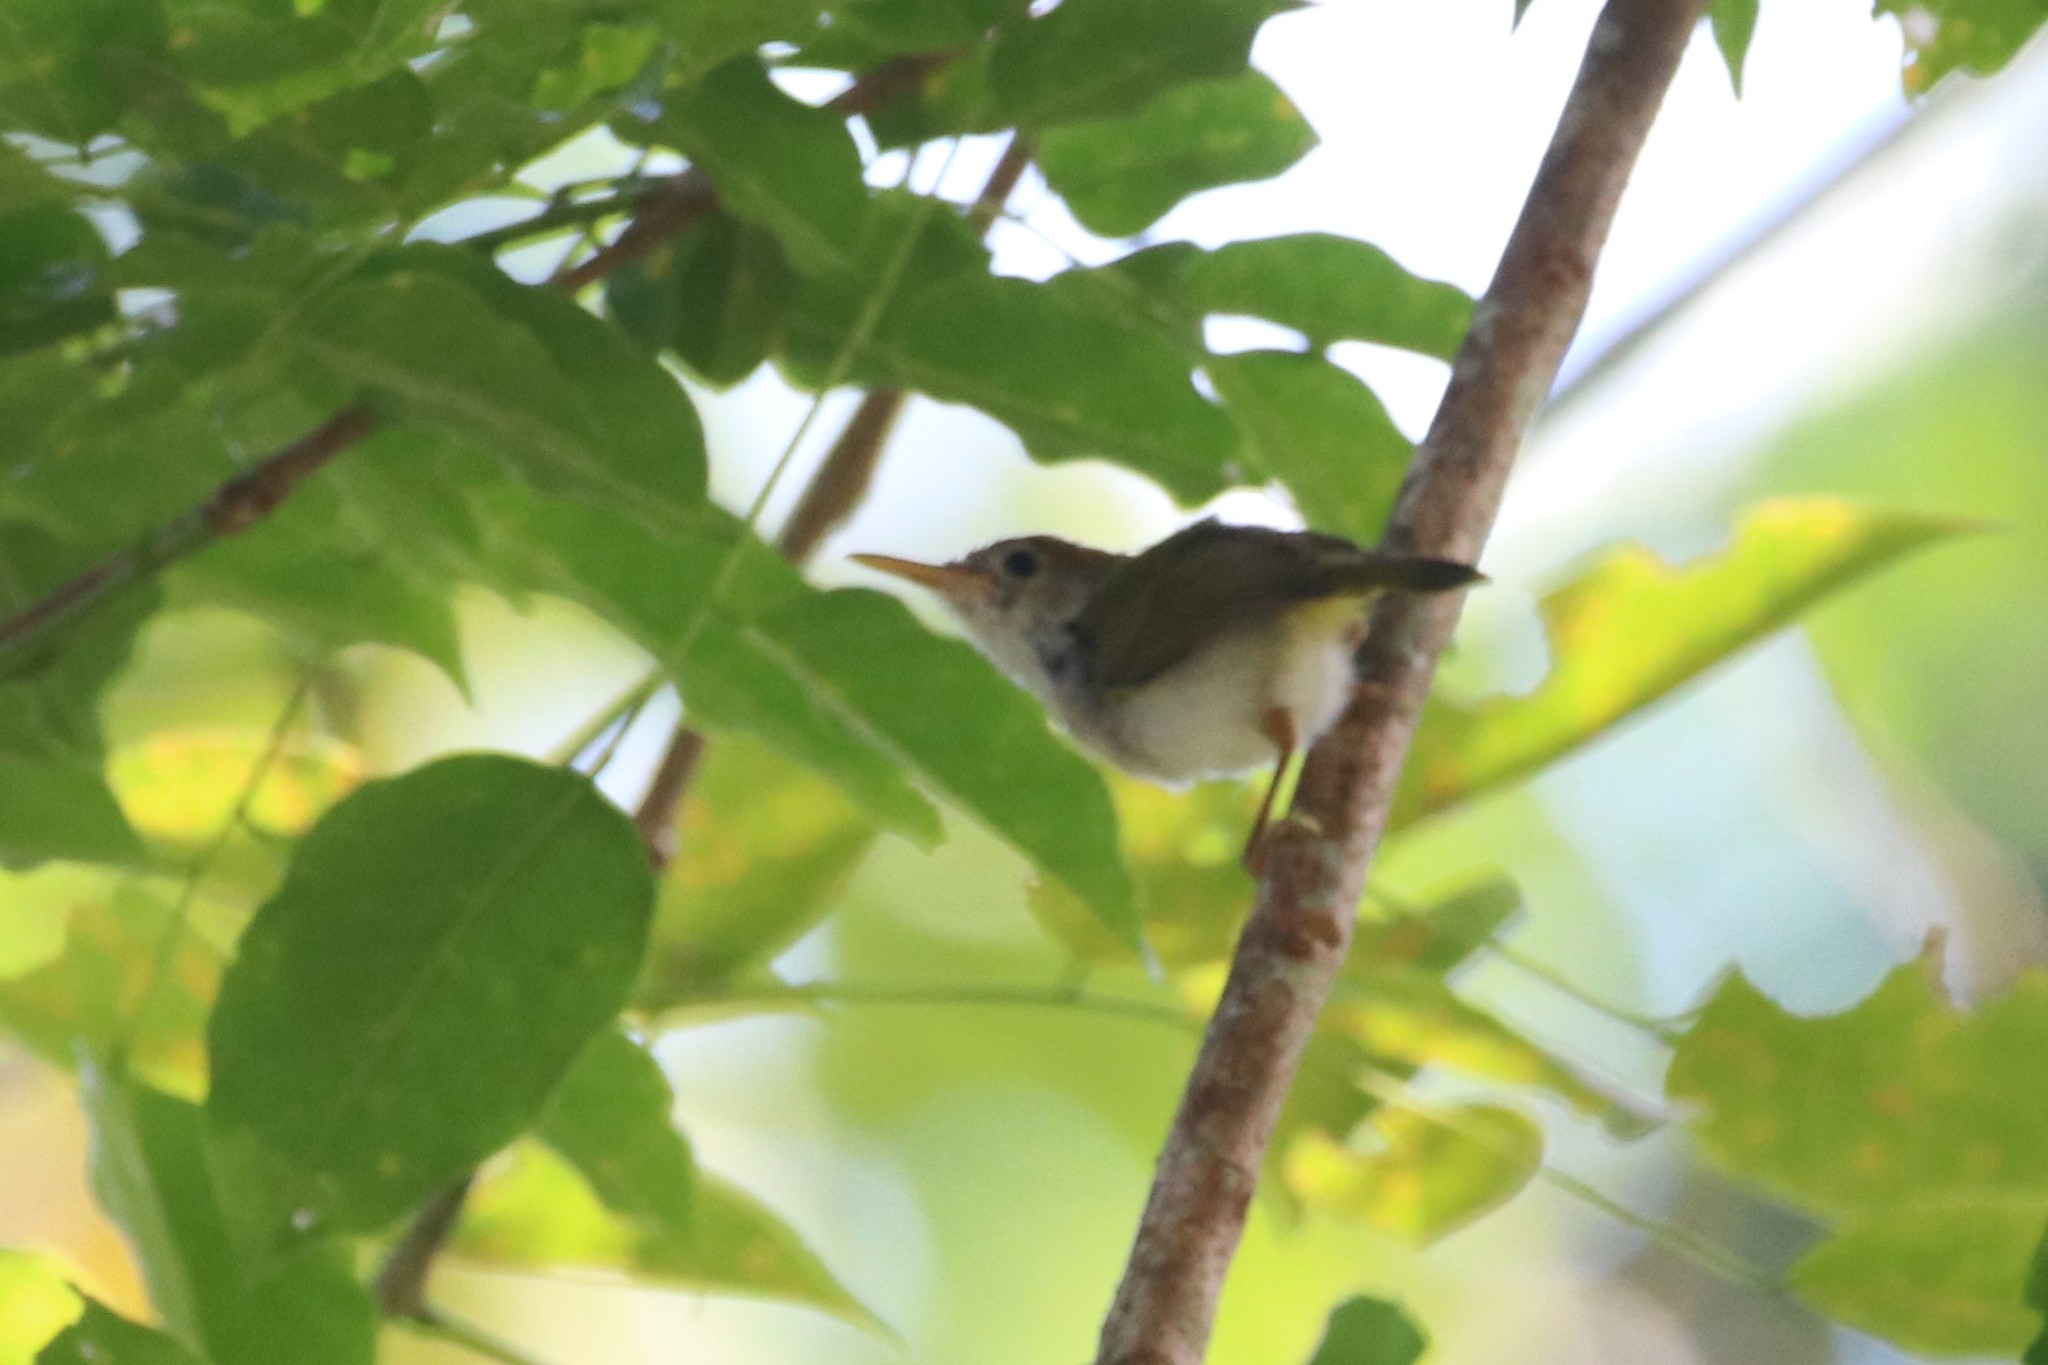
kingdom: Animalia
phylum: Chordata
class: Aves
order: Passeriformes
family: Cisticolidae
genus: Orthotomus
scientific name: Orthotomus atrogularis
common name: Dark-necked tailorbird
